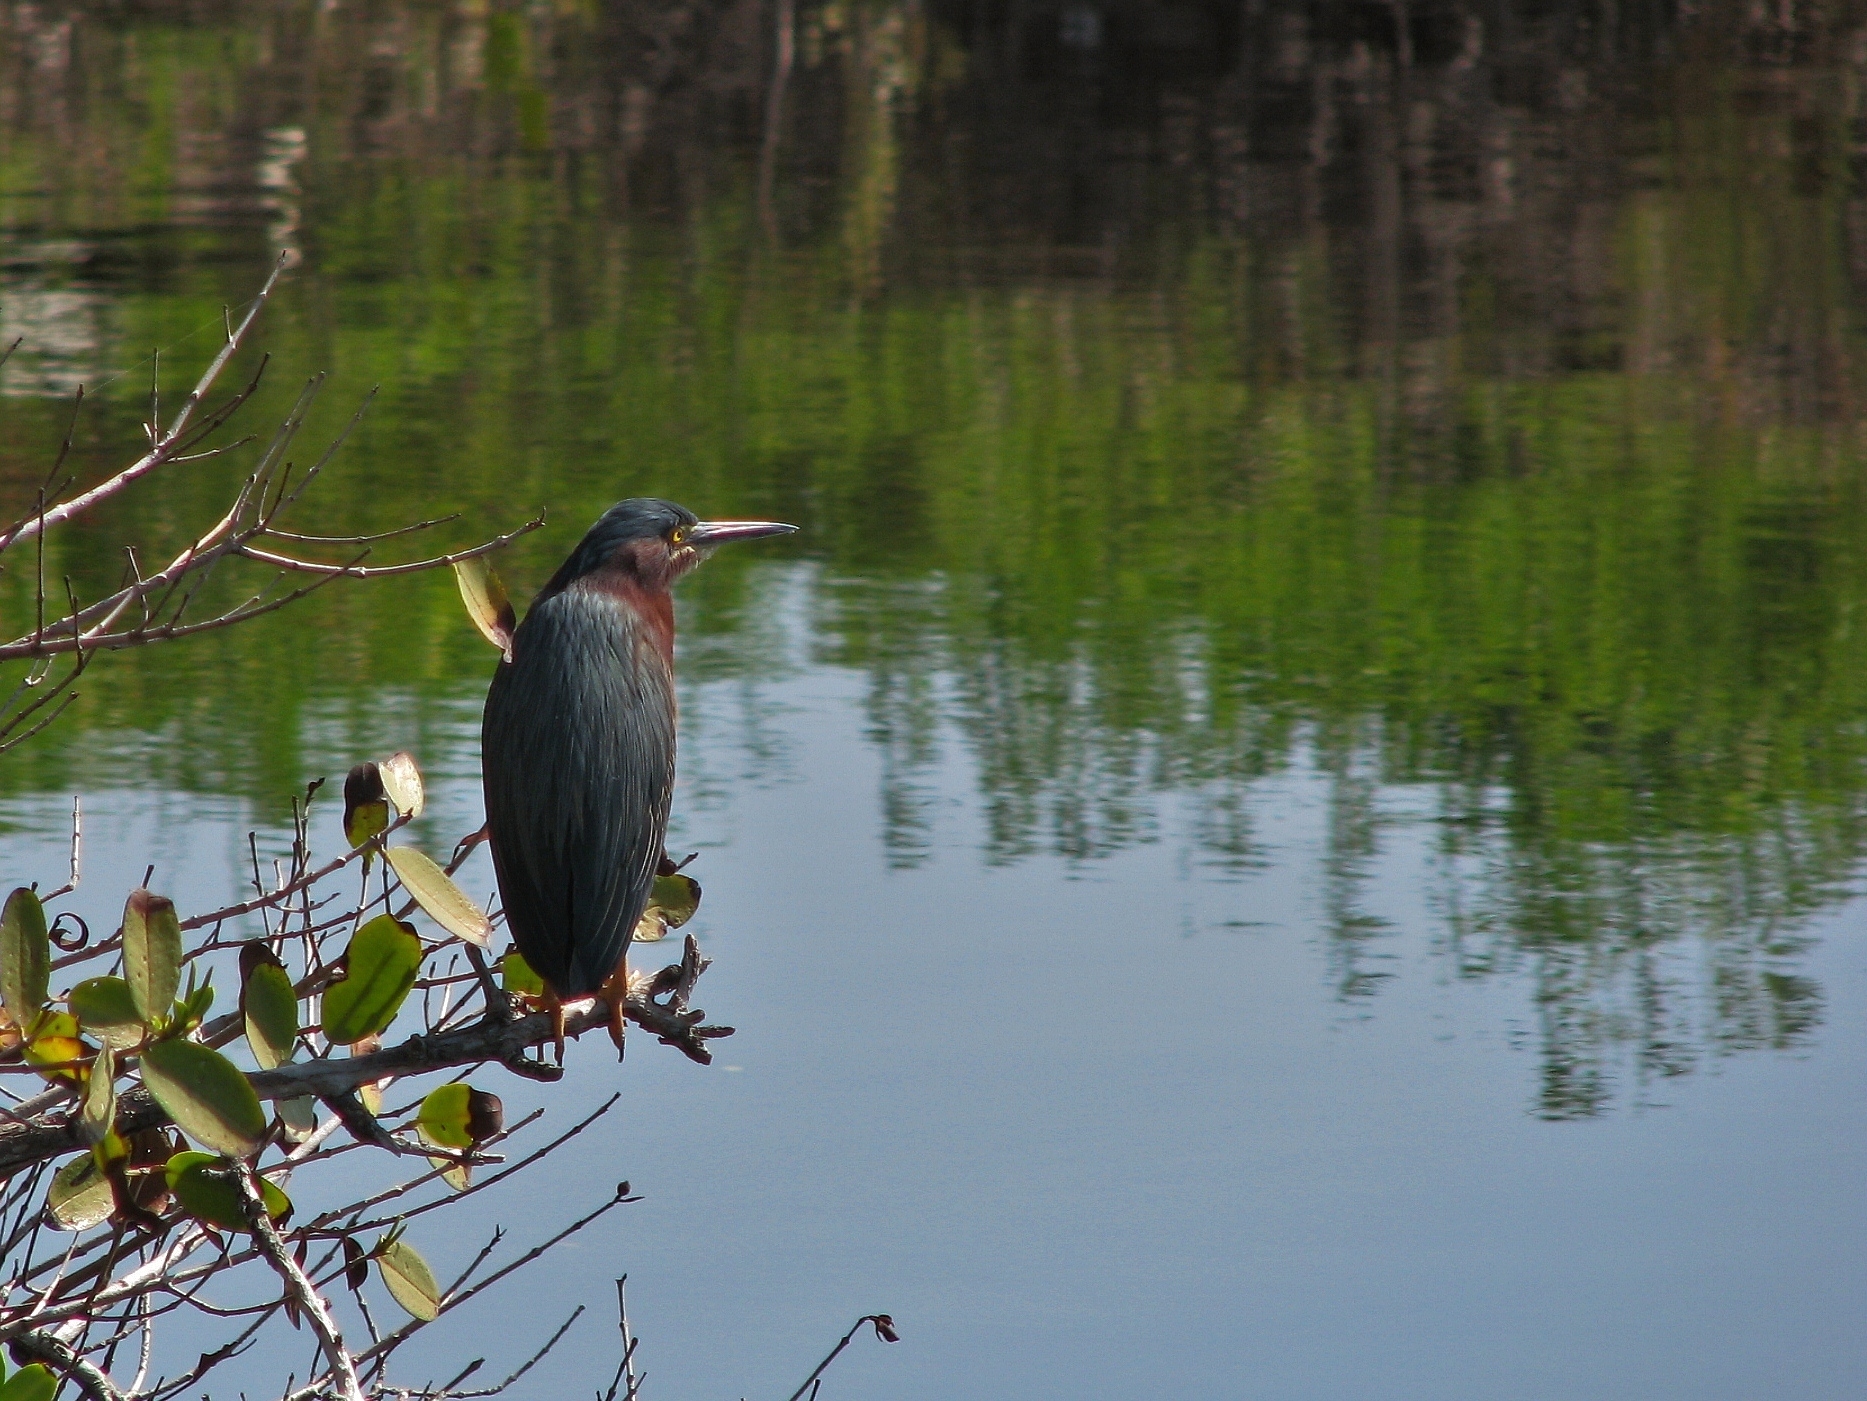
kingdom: Animalia
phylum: Chordata
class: Aves
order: Pelecaniformes
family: Ardeidae
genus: Butorides
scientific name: Butorides virescens
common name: Green heron
